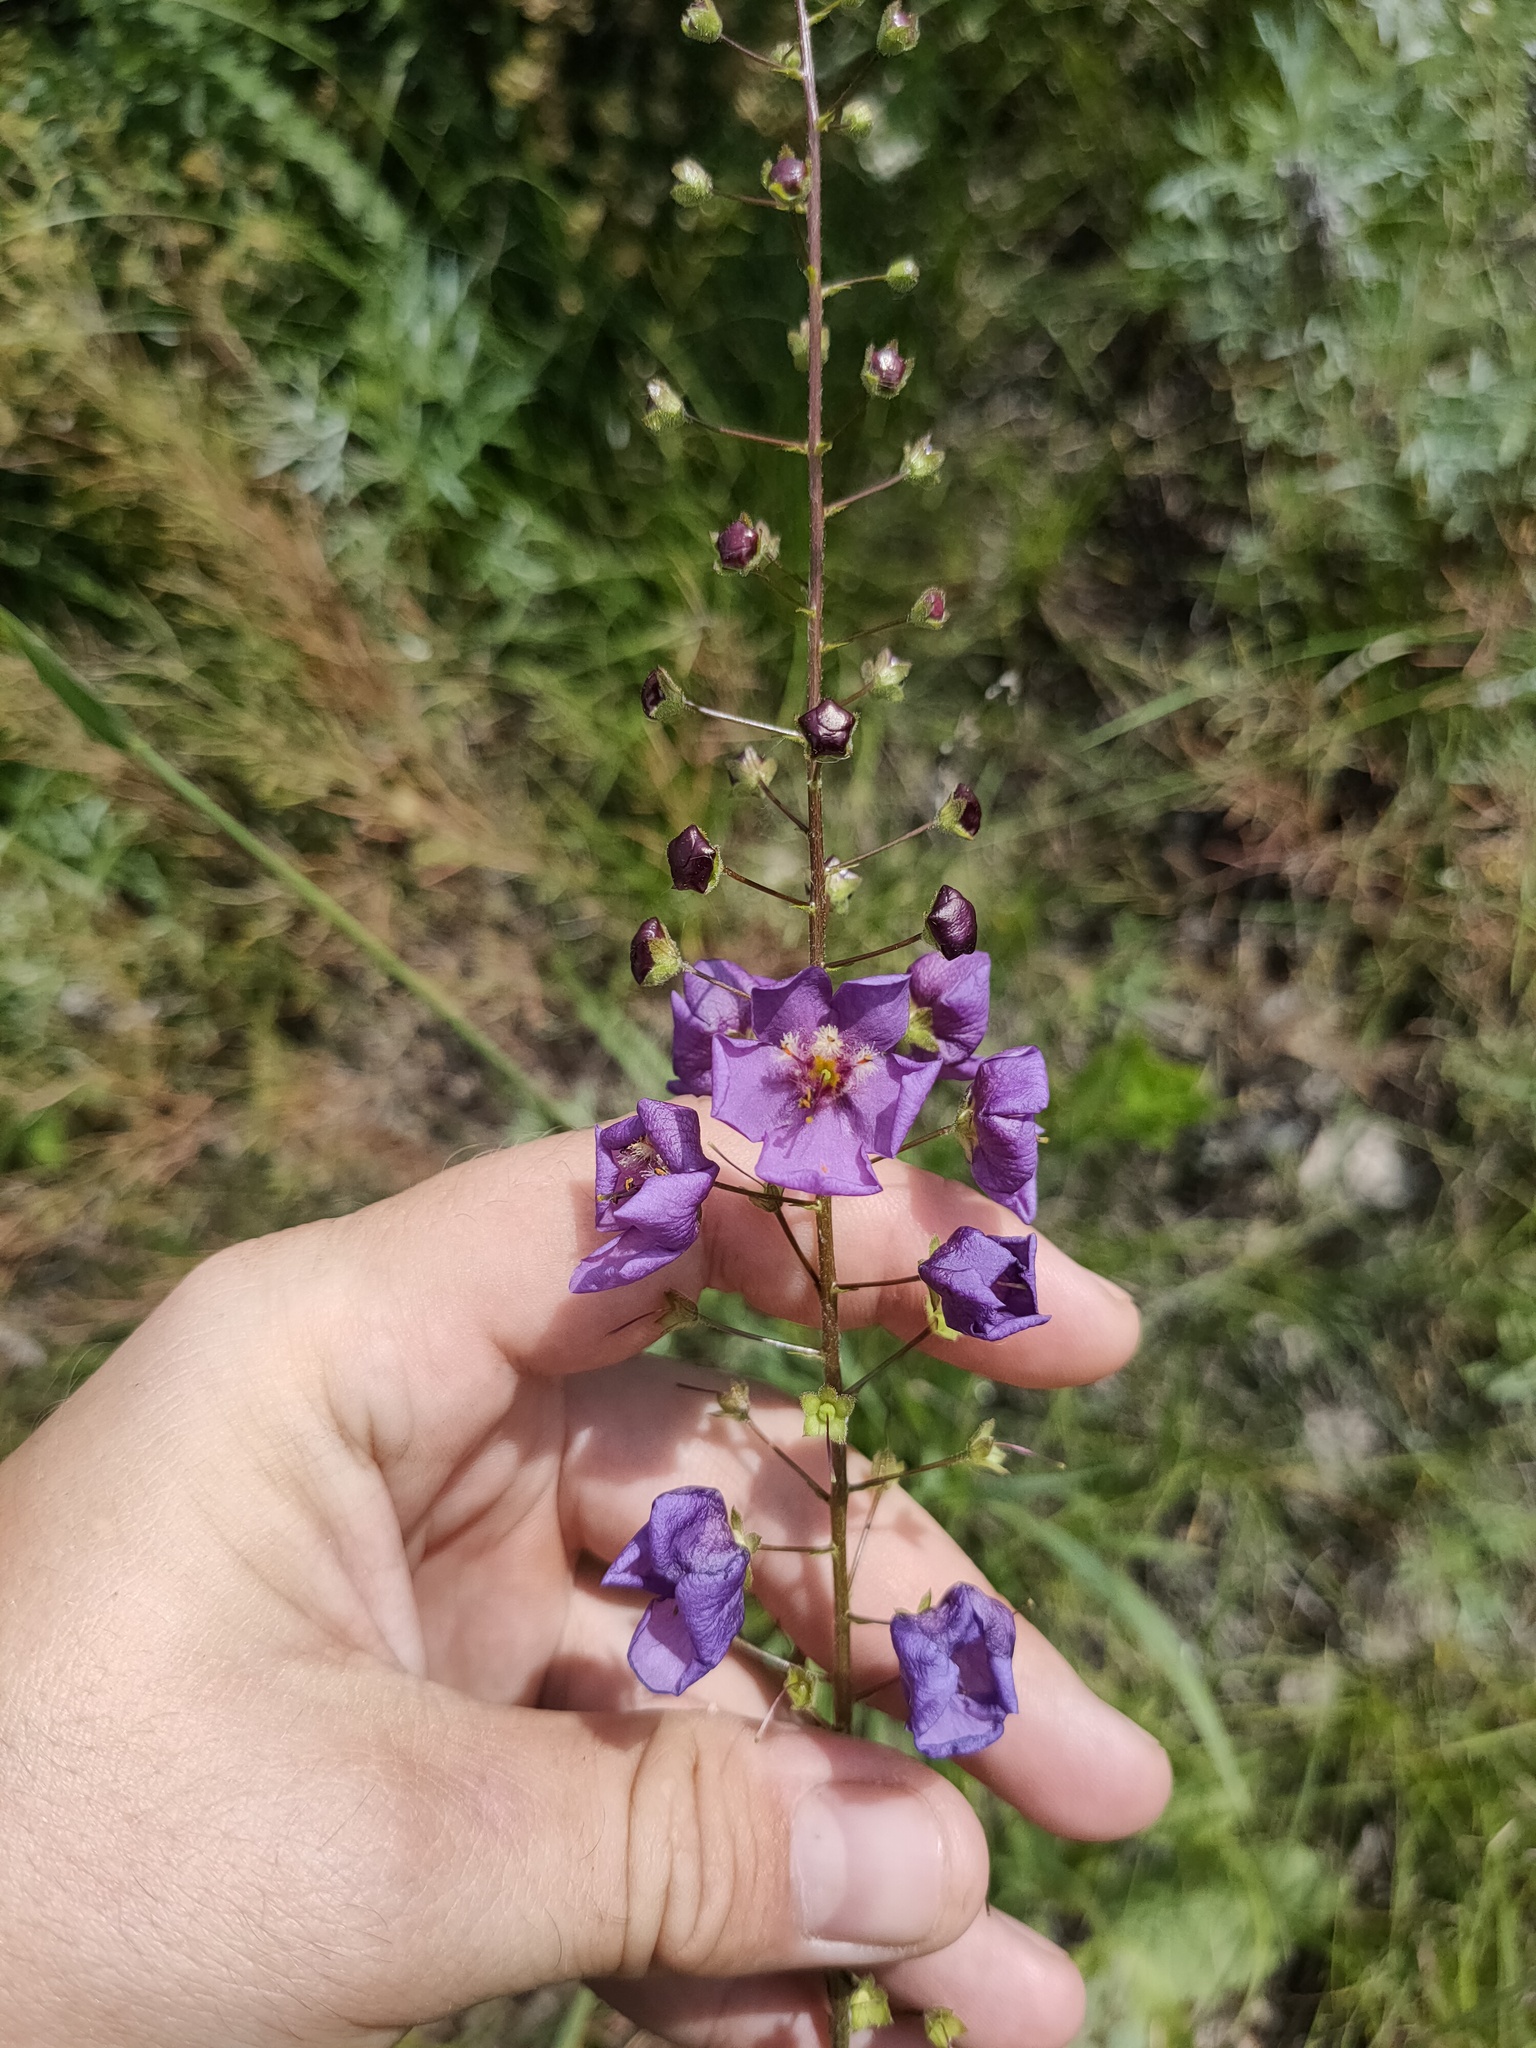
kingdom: Plantae
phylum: Tracheophyta
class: Magnoliopsida
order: Lamiales
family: Scrophulariaceae
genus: Verbascum
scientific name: Verbascum phoeniceum
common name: Purple mullein
